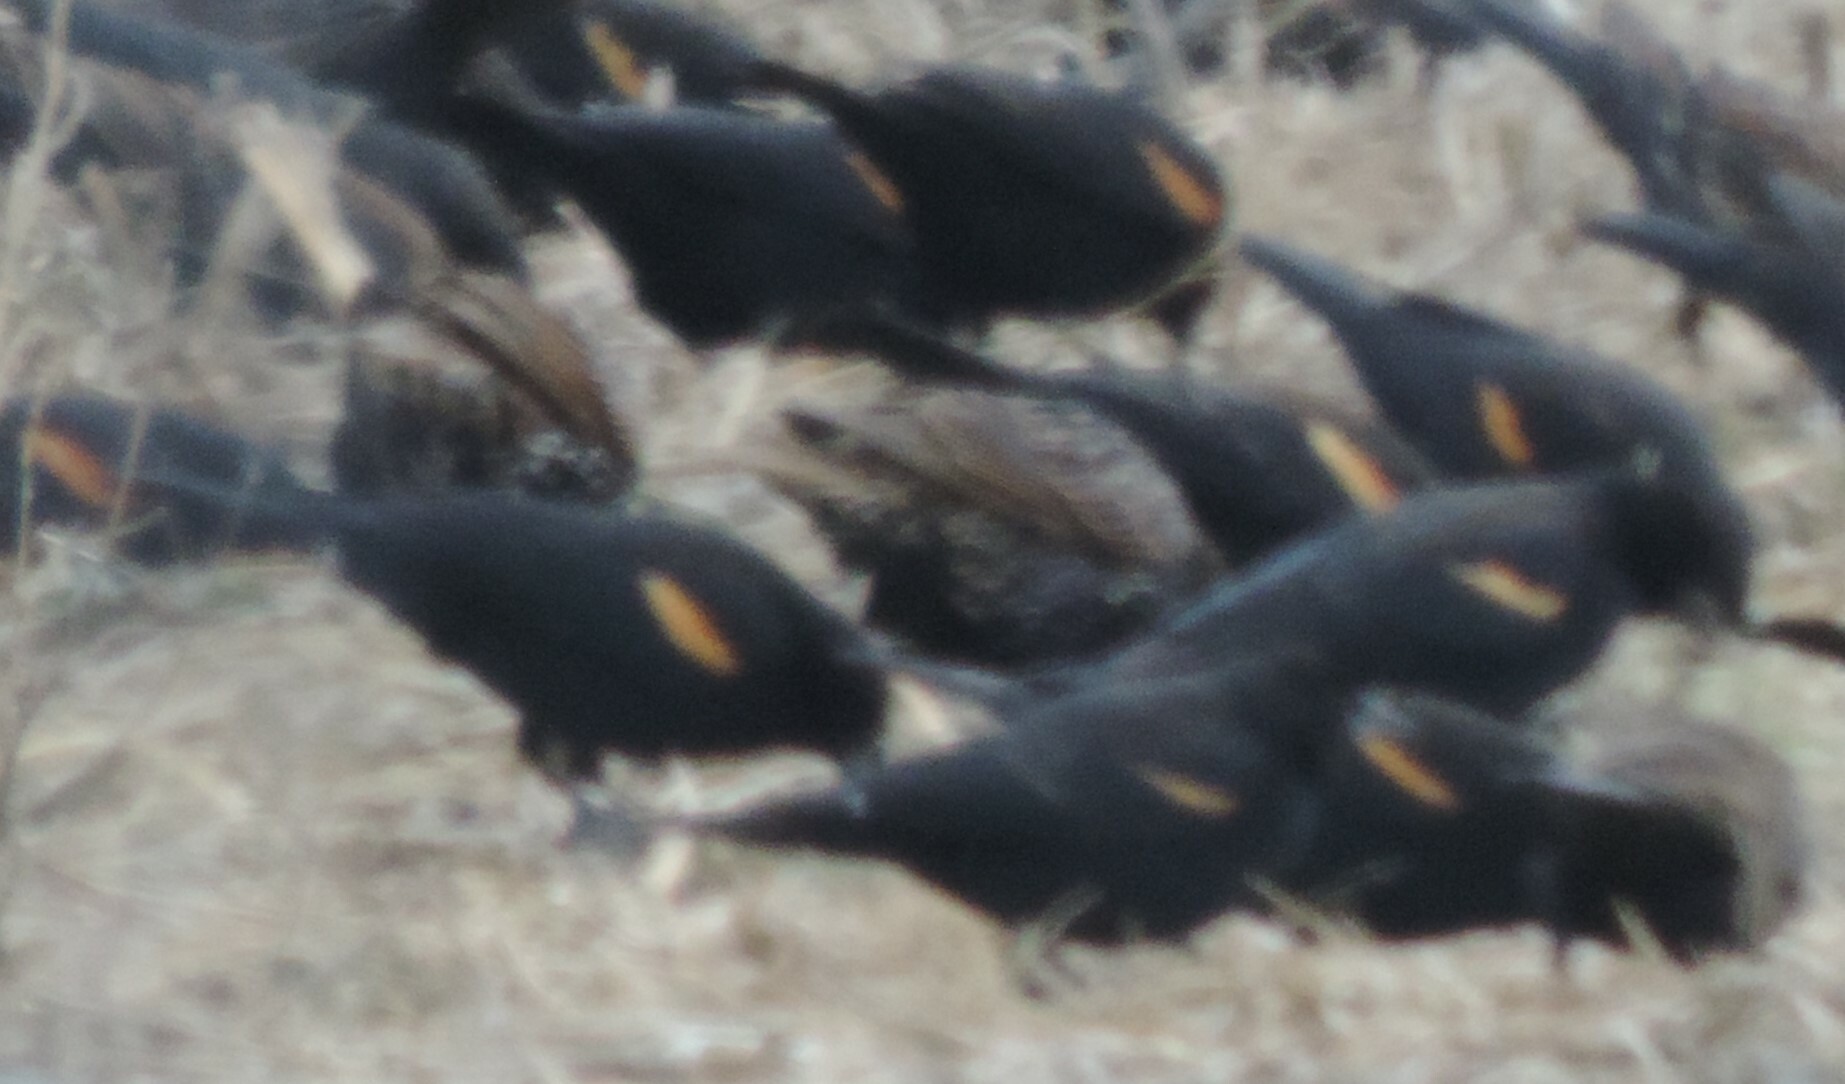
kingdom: Animalia
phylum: Chordata
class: Aves
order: Passeriformes
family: Icteridae
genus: Agelaius
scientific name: Agelaius phoeniceus
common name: Red-winged blackbird
